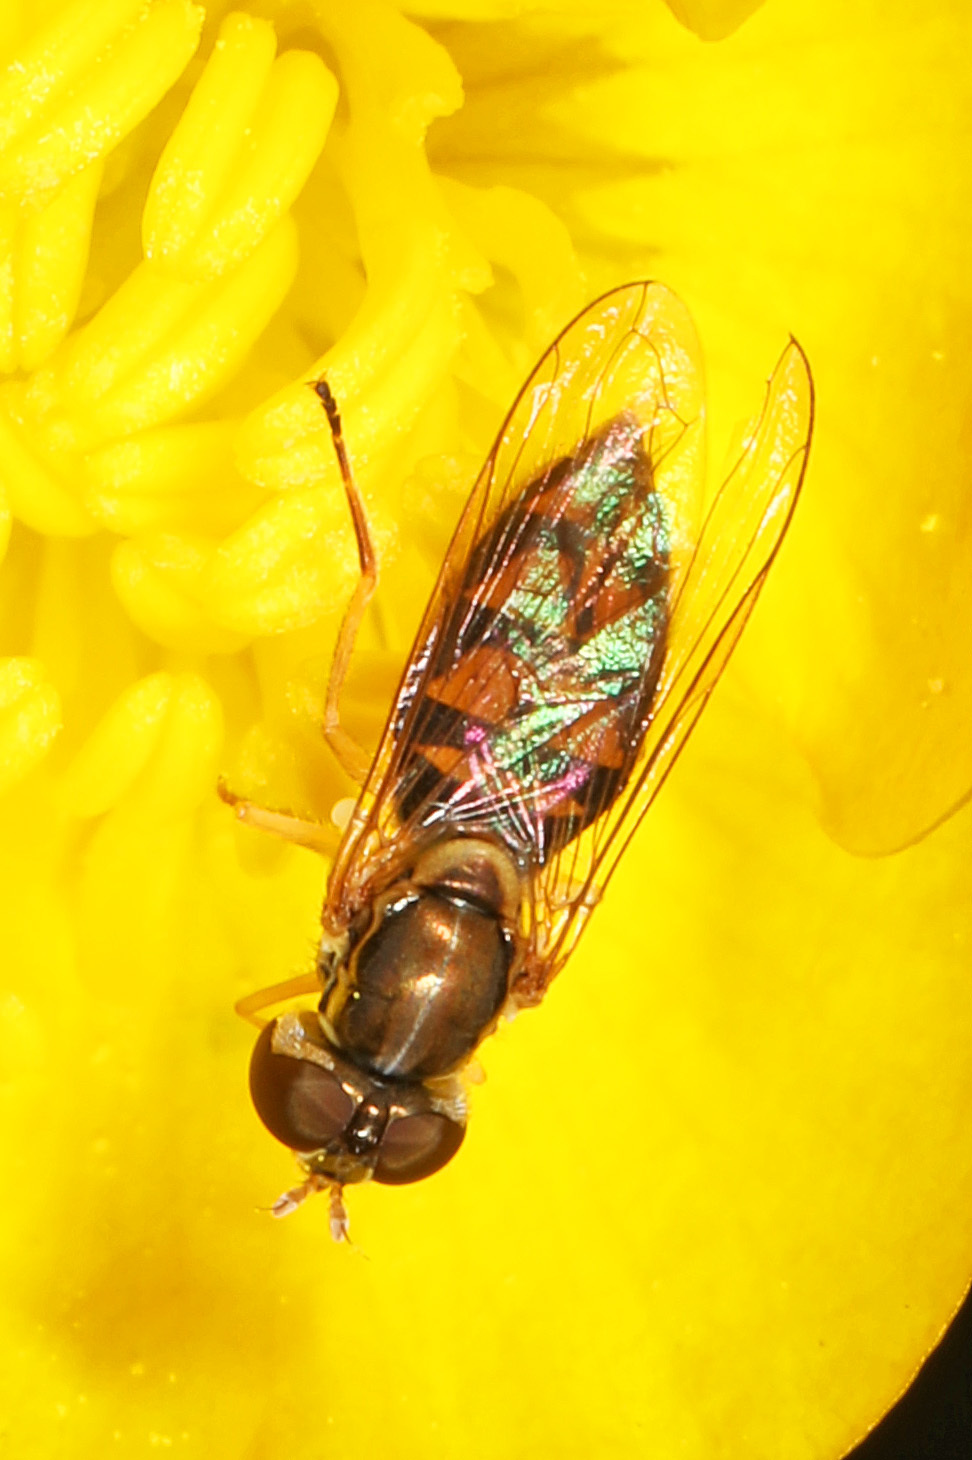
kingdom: Animalia
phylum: Arthropoda
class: Insecta
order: Diptera
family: Syrphidae
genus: Toxomerus
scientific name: Toxomerus marginatus
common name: Syrphid fly
